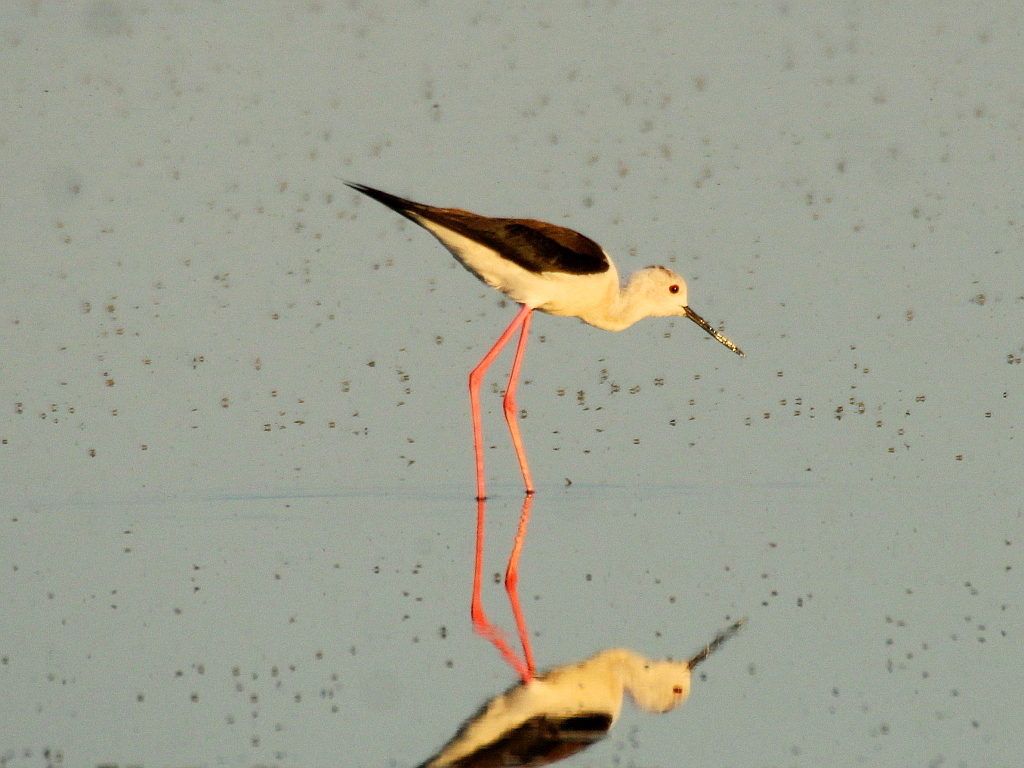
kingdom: Animalia
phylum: Chordata
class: Aves
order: Charadriiformes
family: Recurvirostridae
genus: Himantopus
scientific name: Himantopus himantopus
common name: Black-winged stilt
